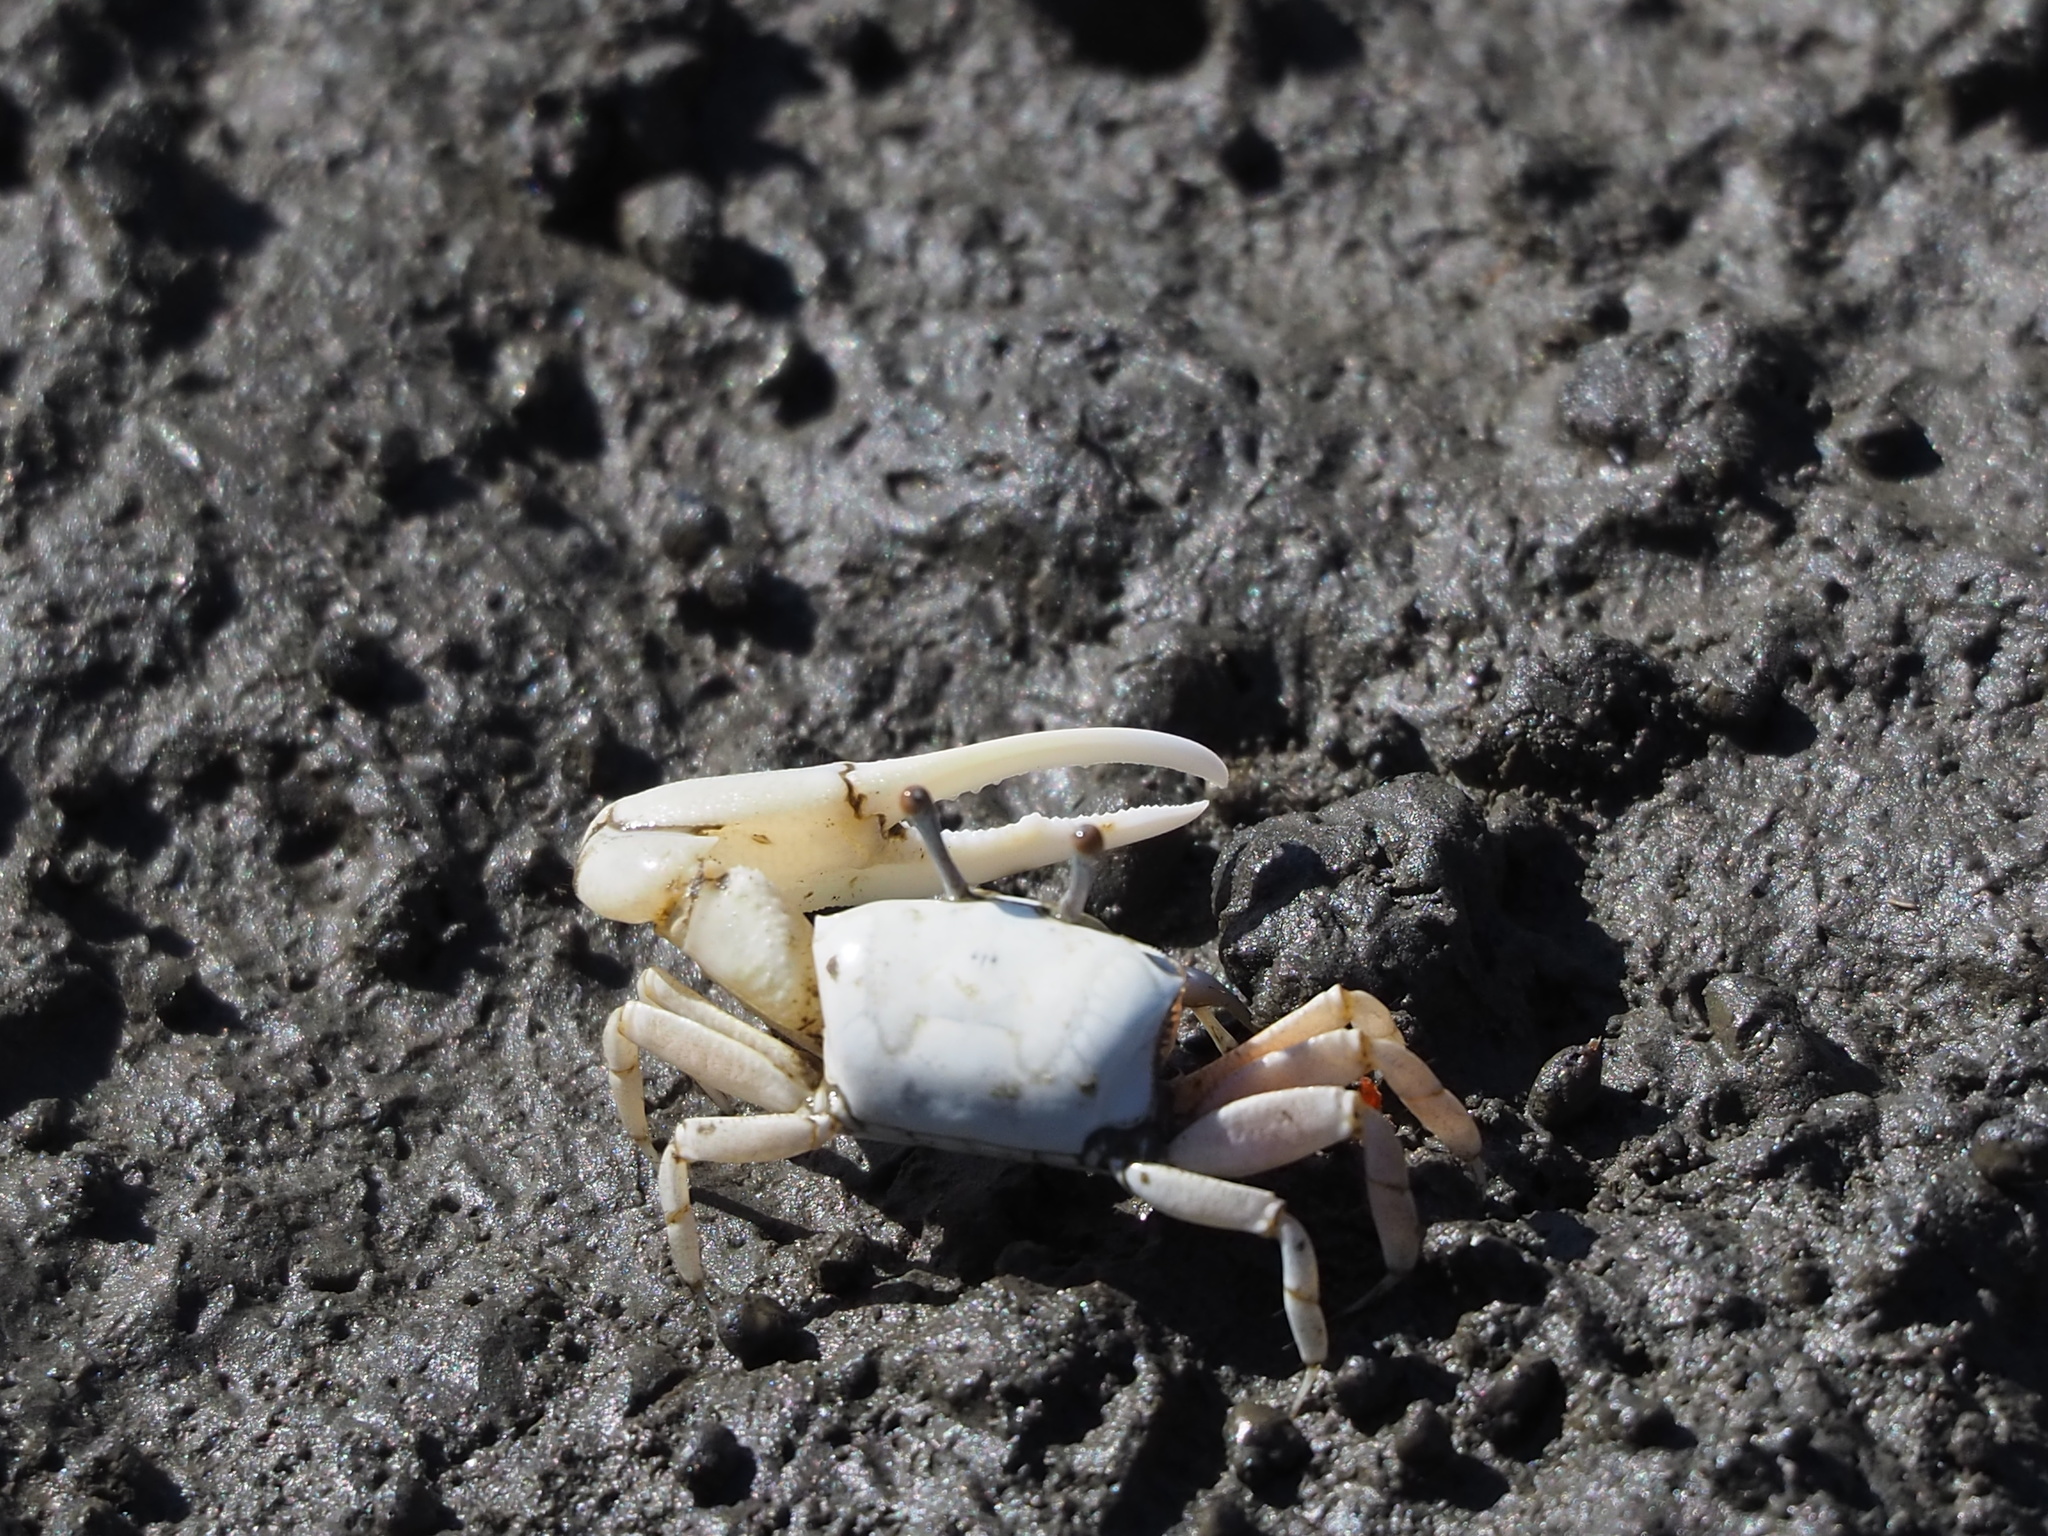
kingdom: Animalia
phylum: Arthropoda
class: Malacostraca
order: Decapoda
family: Ocypodidae
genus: Austruca
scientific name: Austruca lactea
